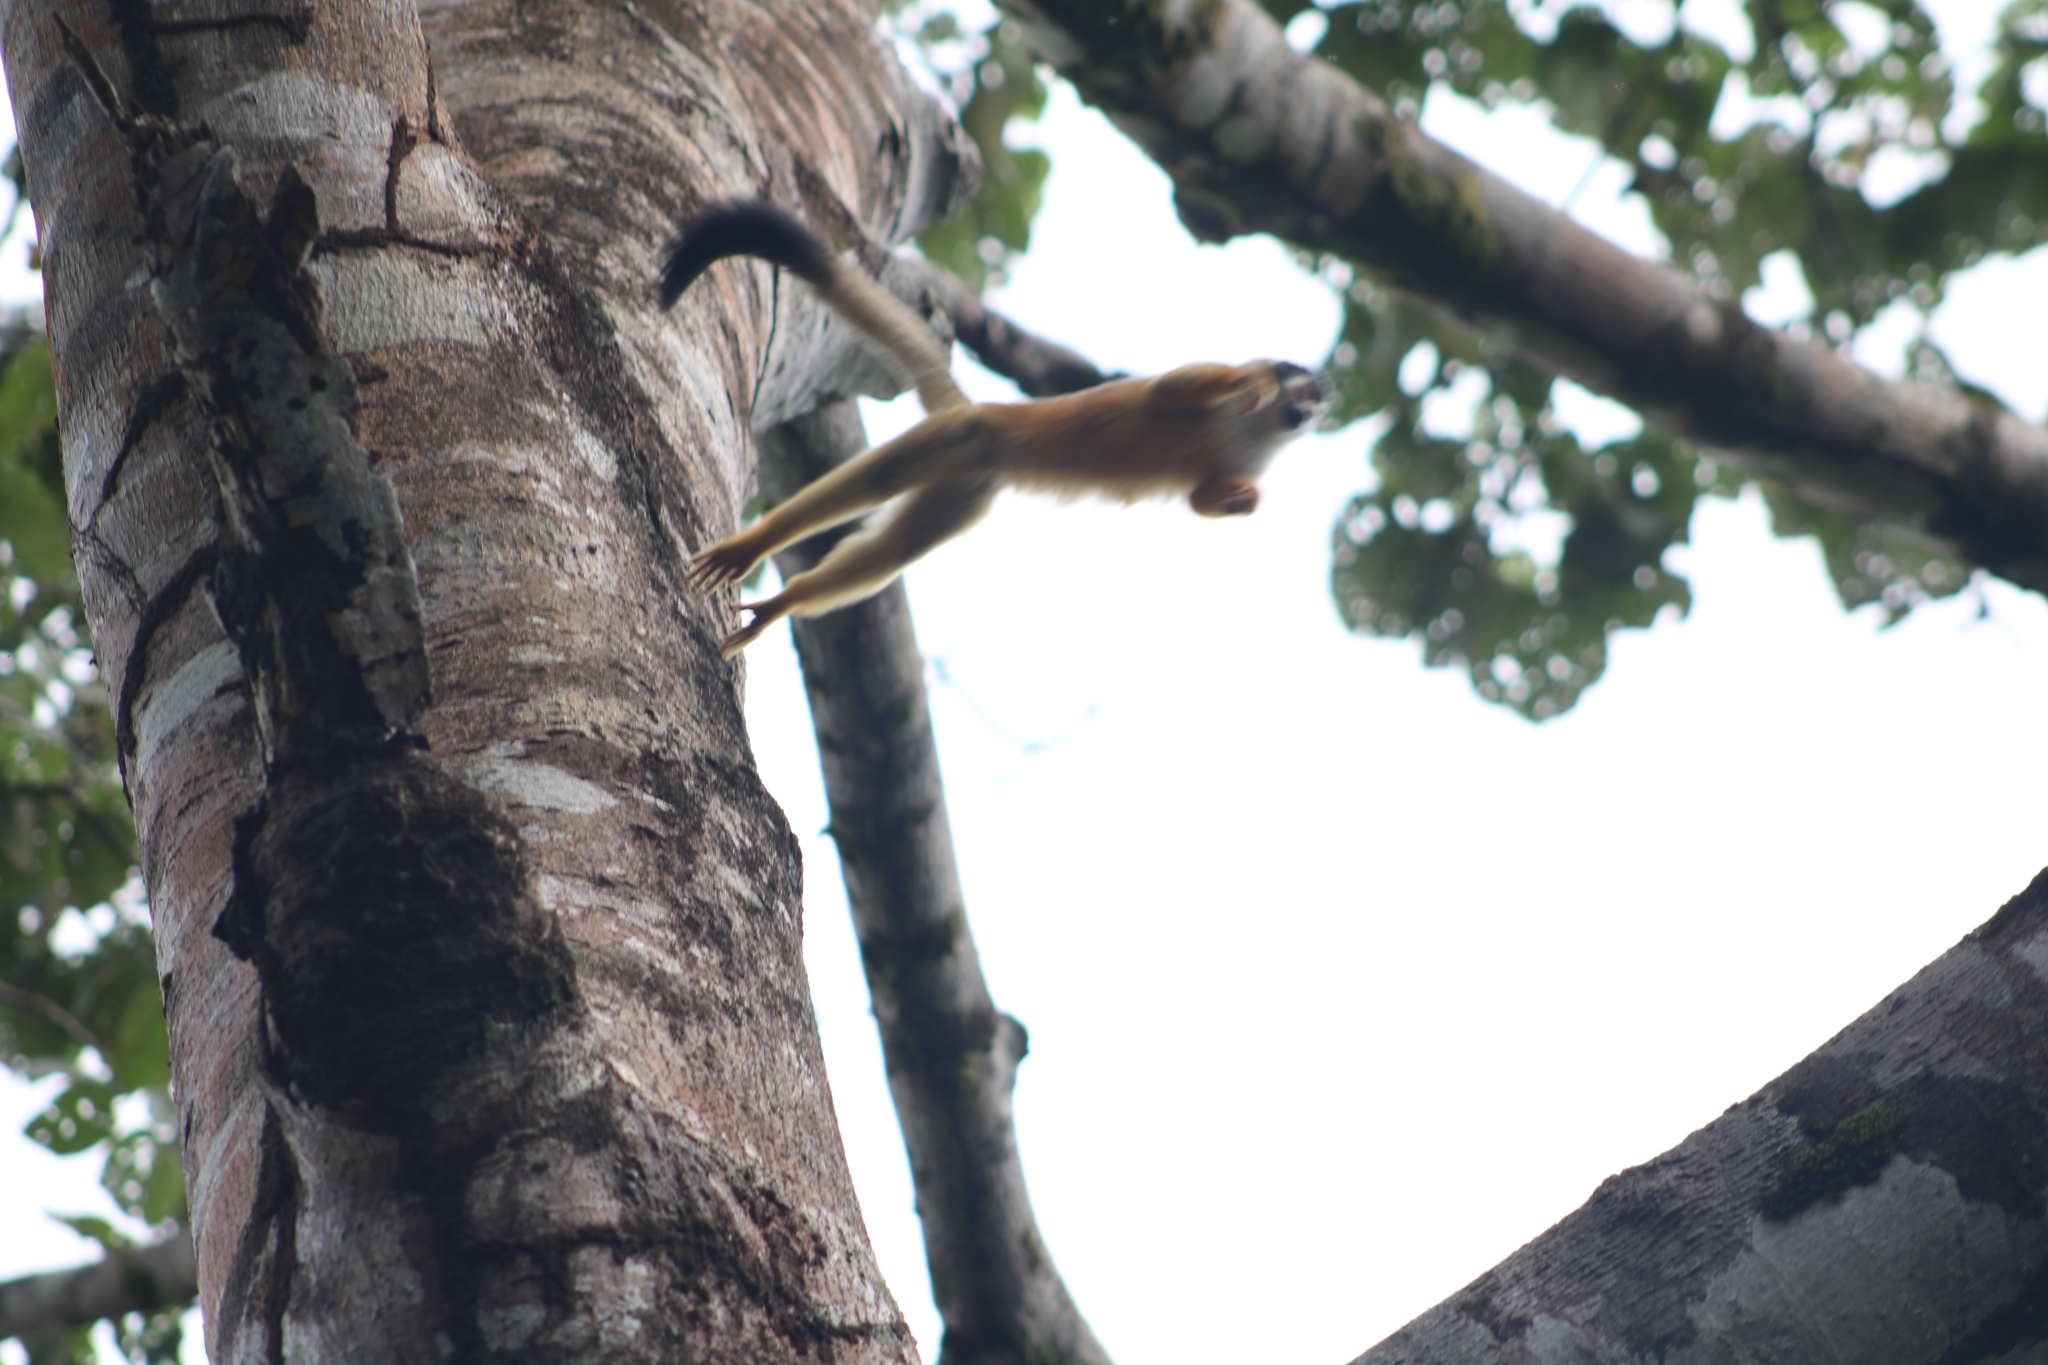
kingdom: Animalia
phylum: Chordata
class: Mammalia
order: Primates
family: Cebidae
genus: Saimiri
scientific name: Saimiri oerstedii
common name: Central american squirrel monkey
